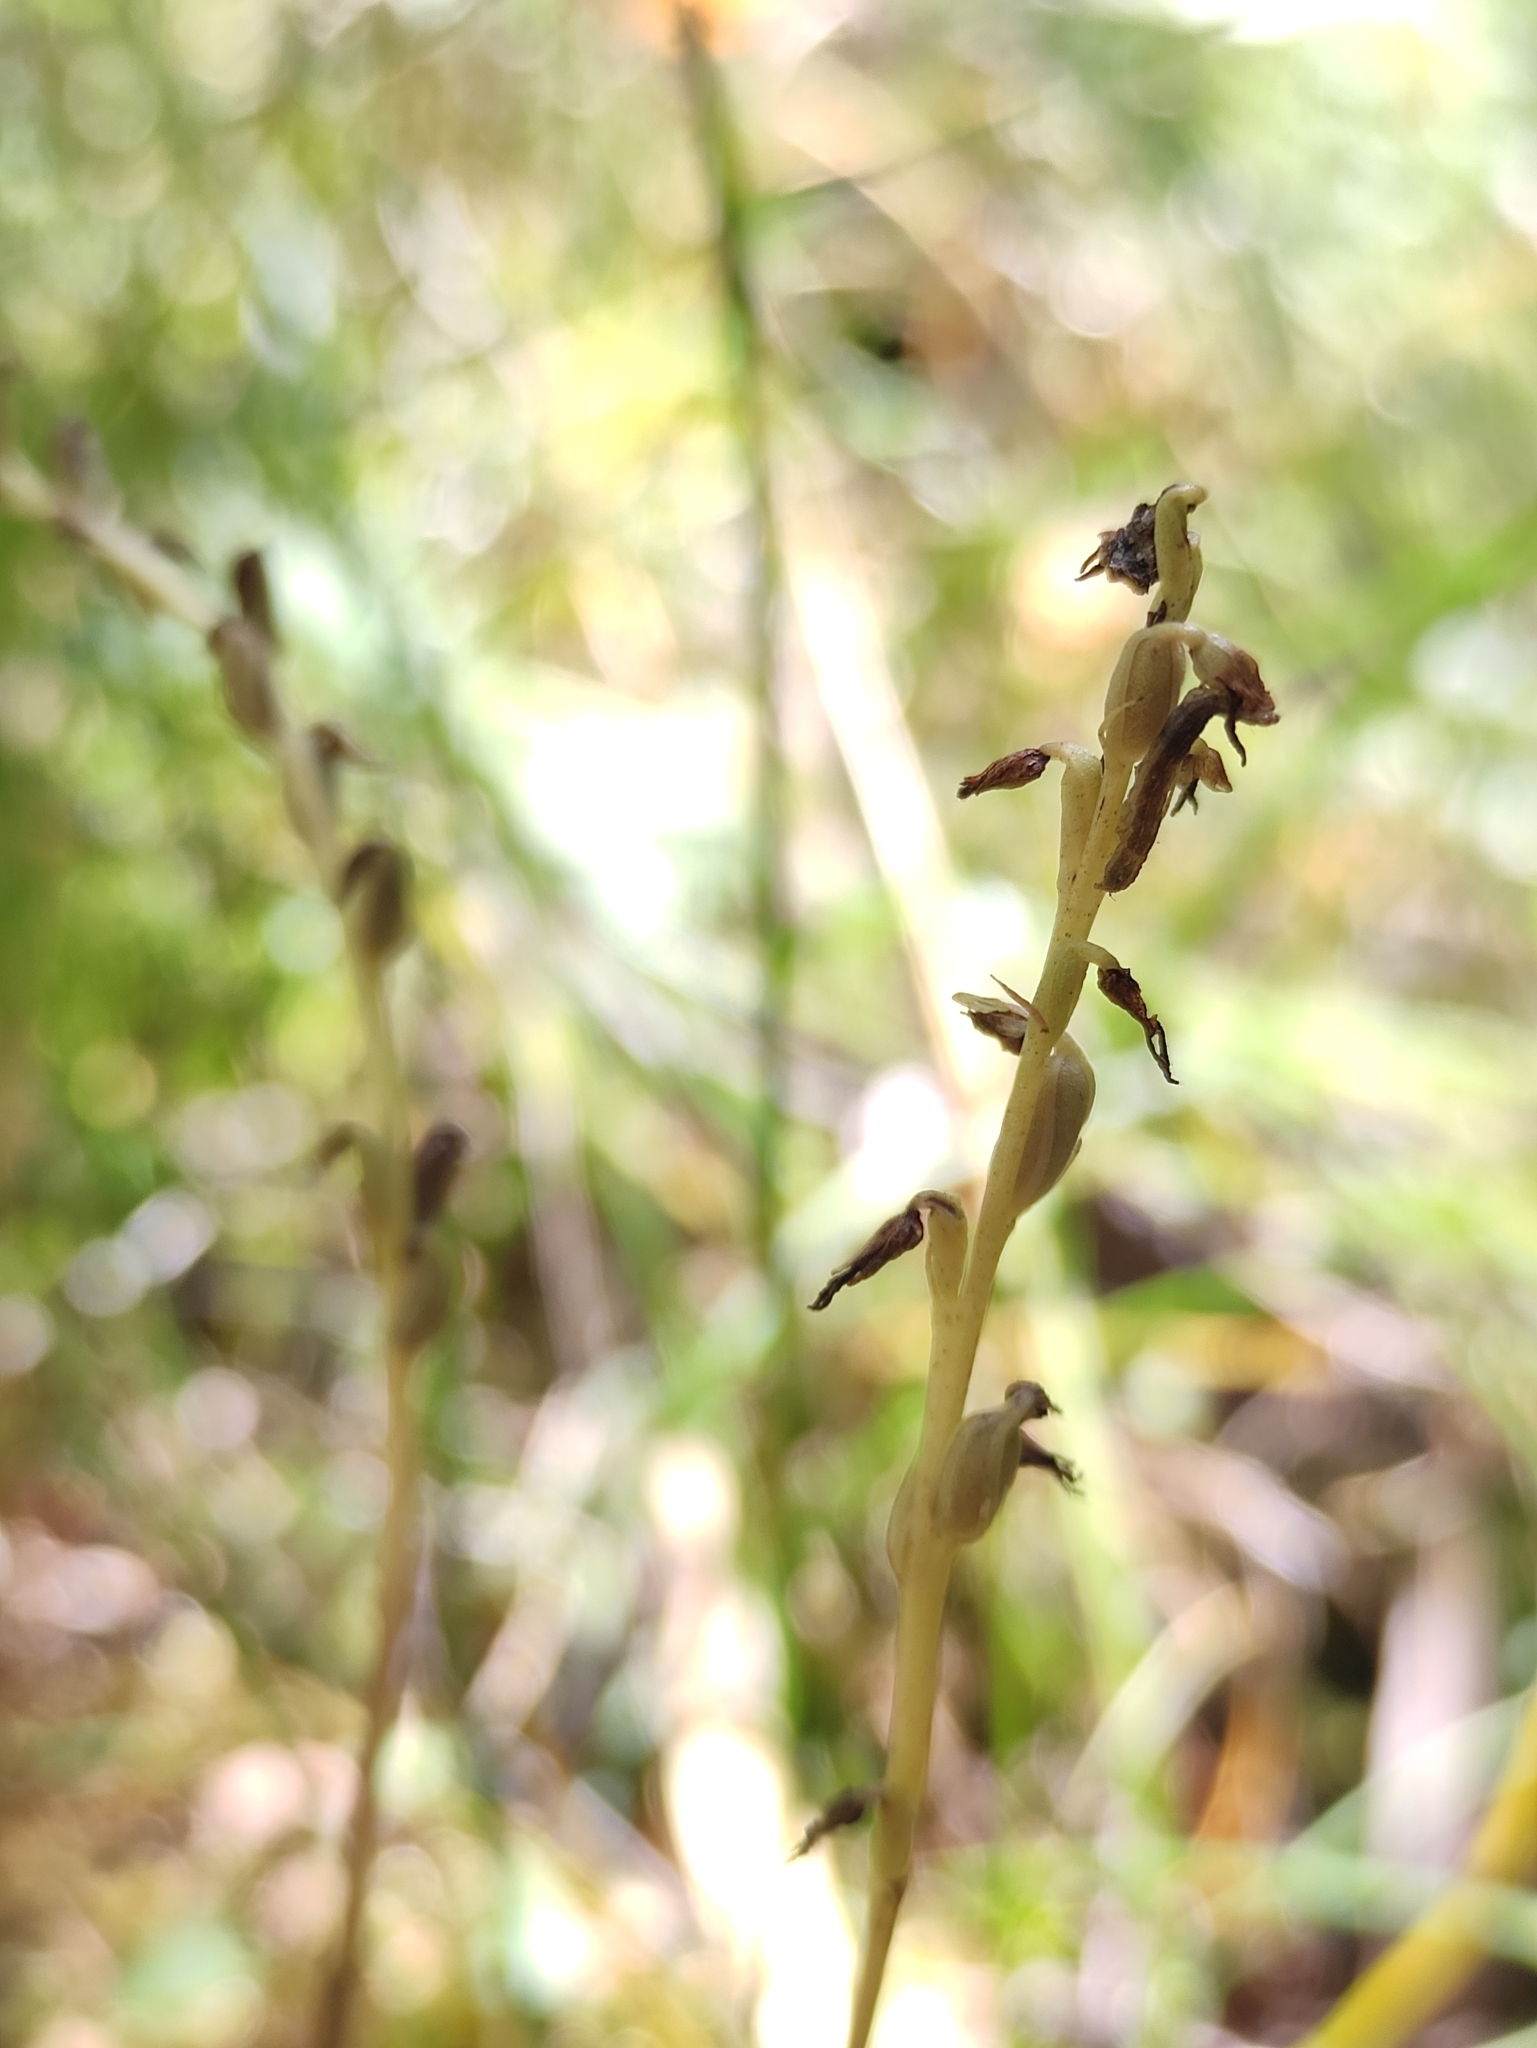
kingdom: Plantae
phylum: Tracheophyta
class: Liliopsida
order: Asparagales
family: Orchidaceae
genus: Hemipilia
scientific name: Hemipilia cucullata
